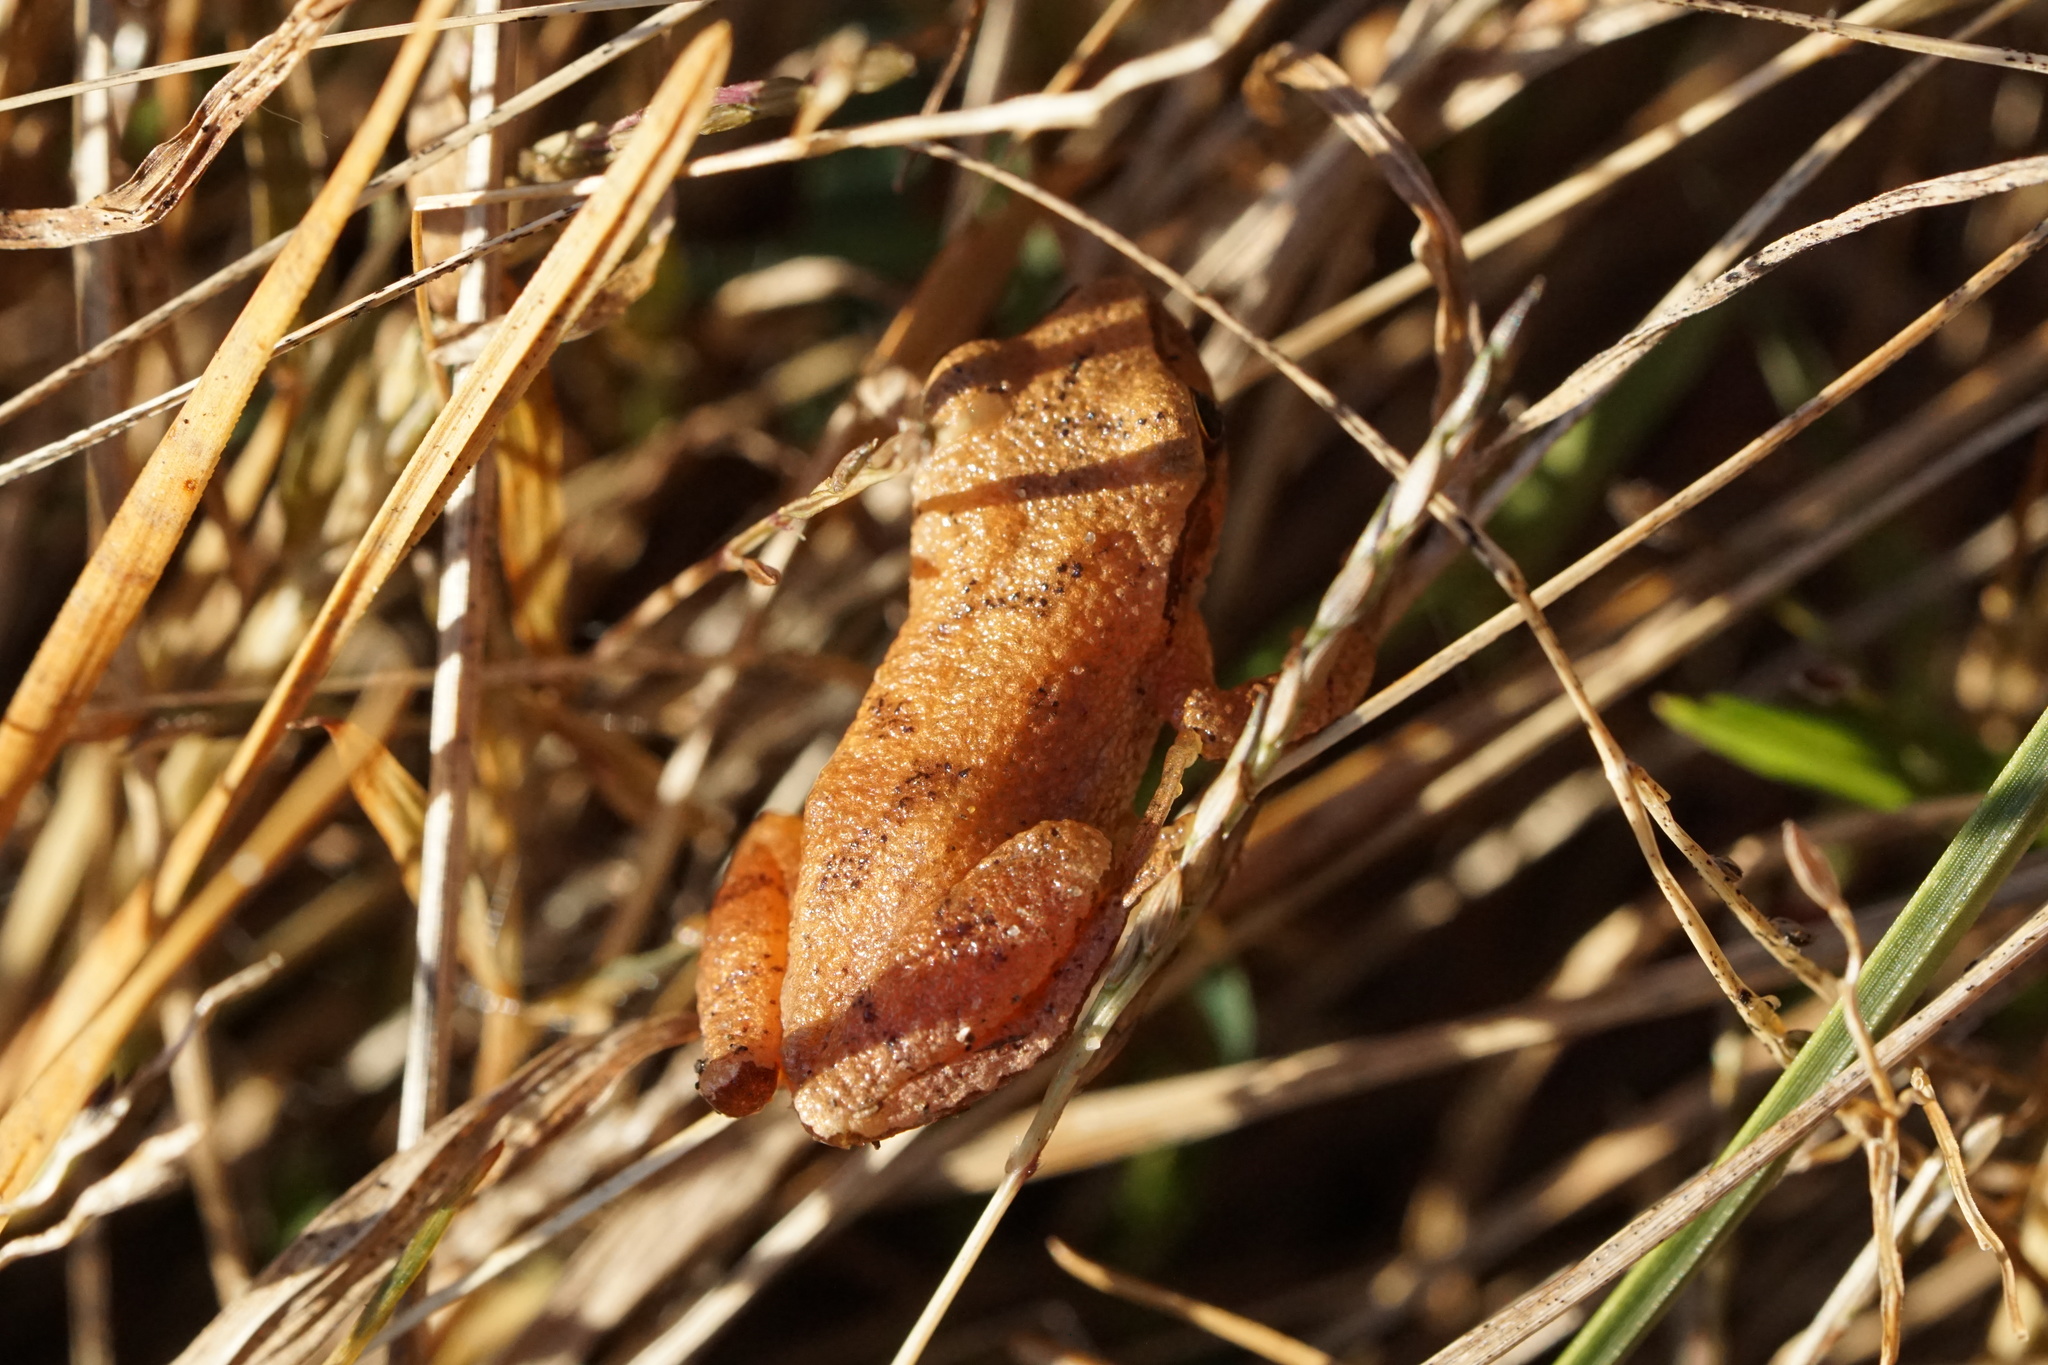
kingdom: Animalia
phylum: Chordata
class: Amphibia
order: Anura
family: Hylidae
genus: Pseudacris
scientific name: Pseudacris crucifer
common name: Spring peeper
